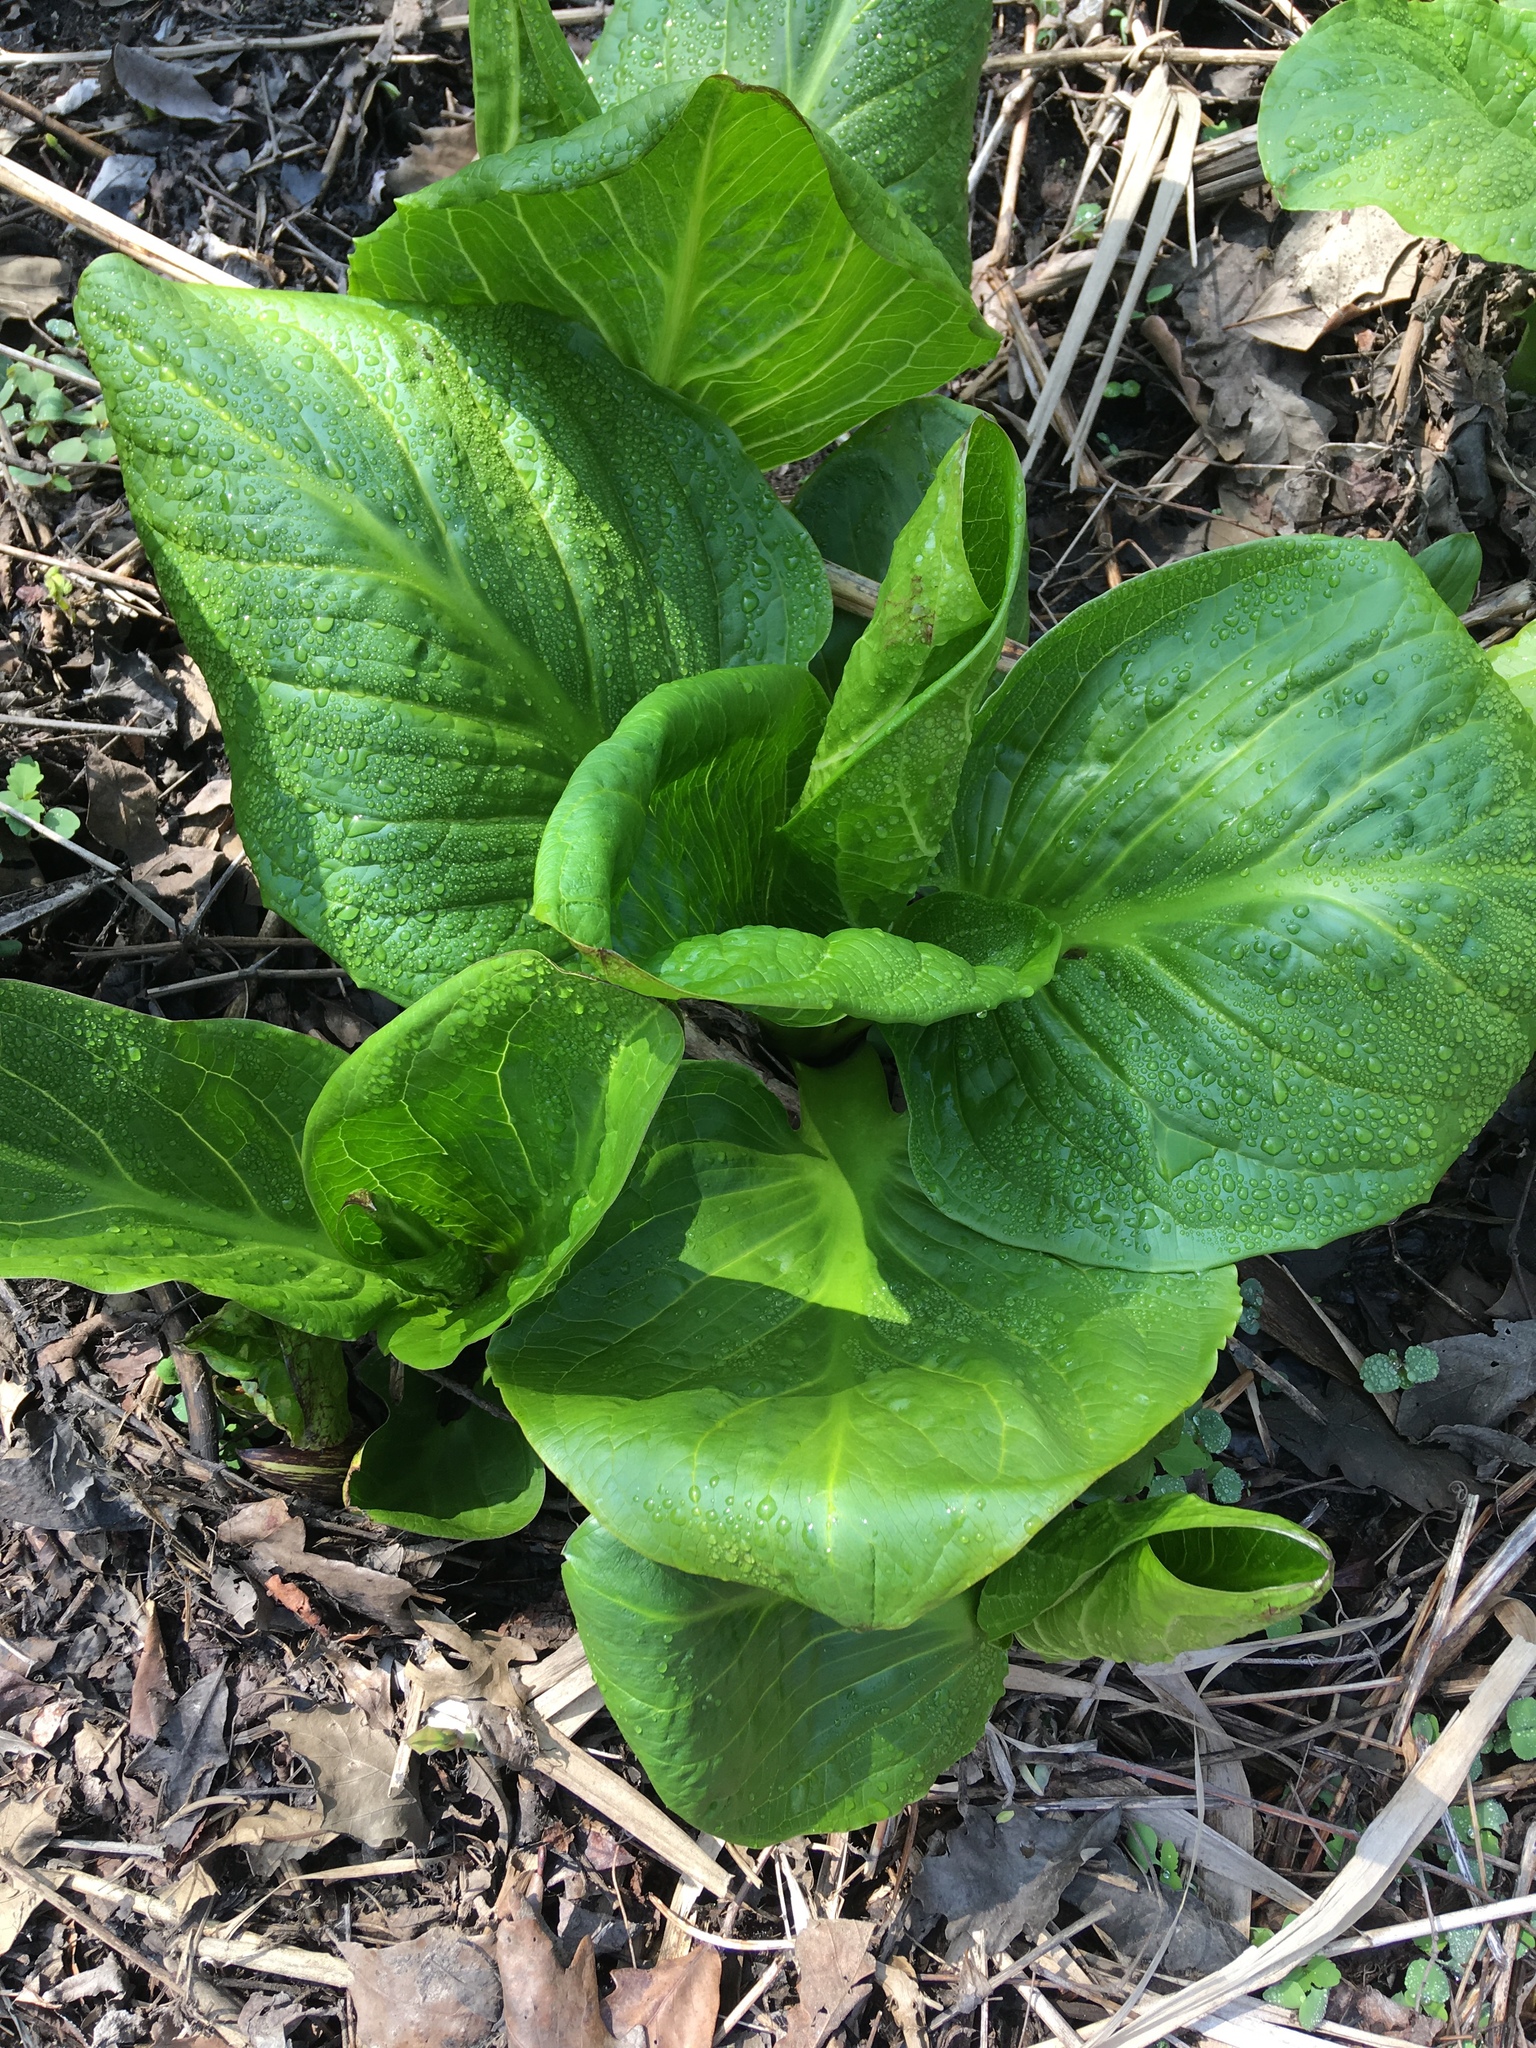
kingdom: Plantae
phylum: Tracheophyta
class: Liliopsida
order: Alismatales
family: Araceae
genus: Symplocarpus
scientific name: Symplocarpus foetidus
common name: Eastern skunk cabbage
